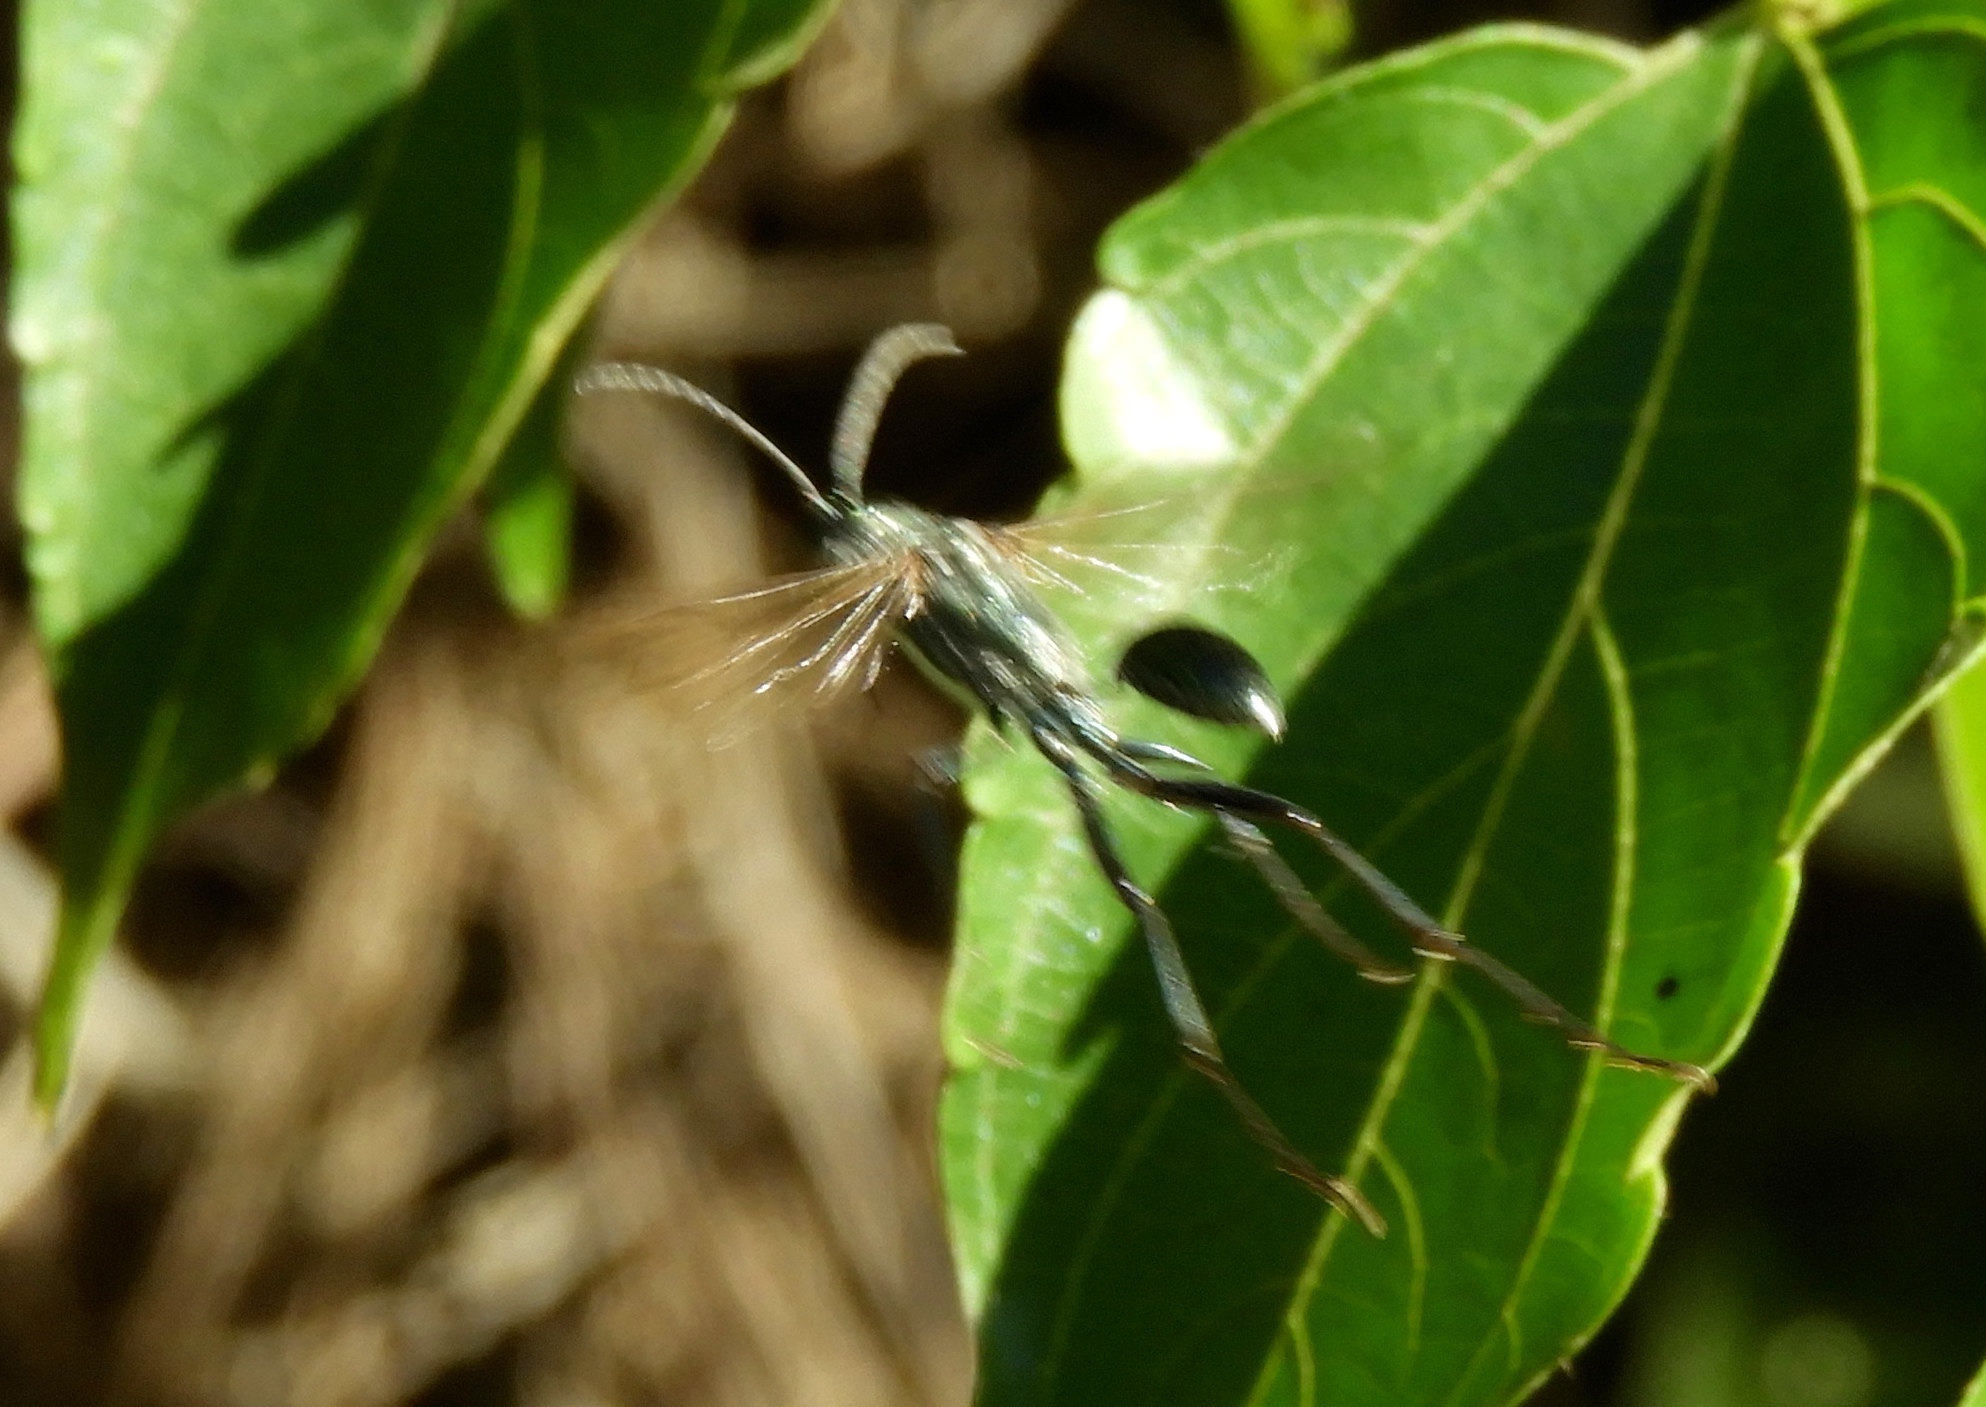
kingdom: Animalia
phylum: Arthropoda
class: Insecta
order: Hymenoptera
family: Sphecidae
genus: Eremnophila
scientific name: Eremnophila aureonotata
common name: Gold-marked thread-waisted wasp
